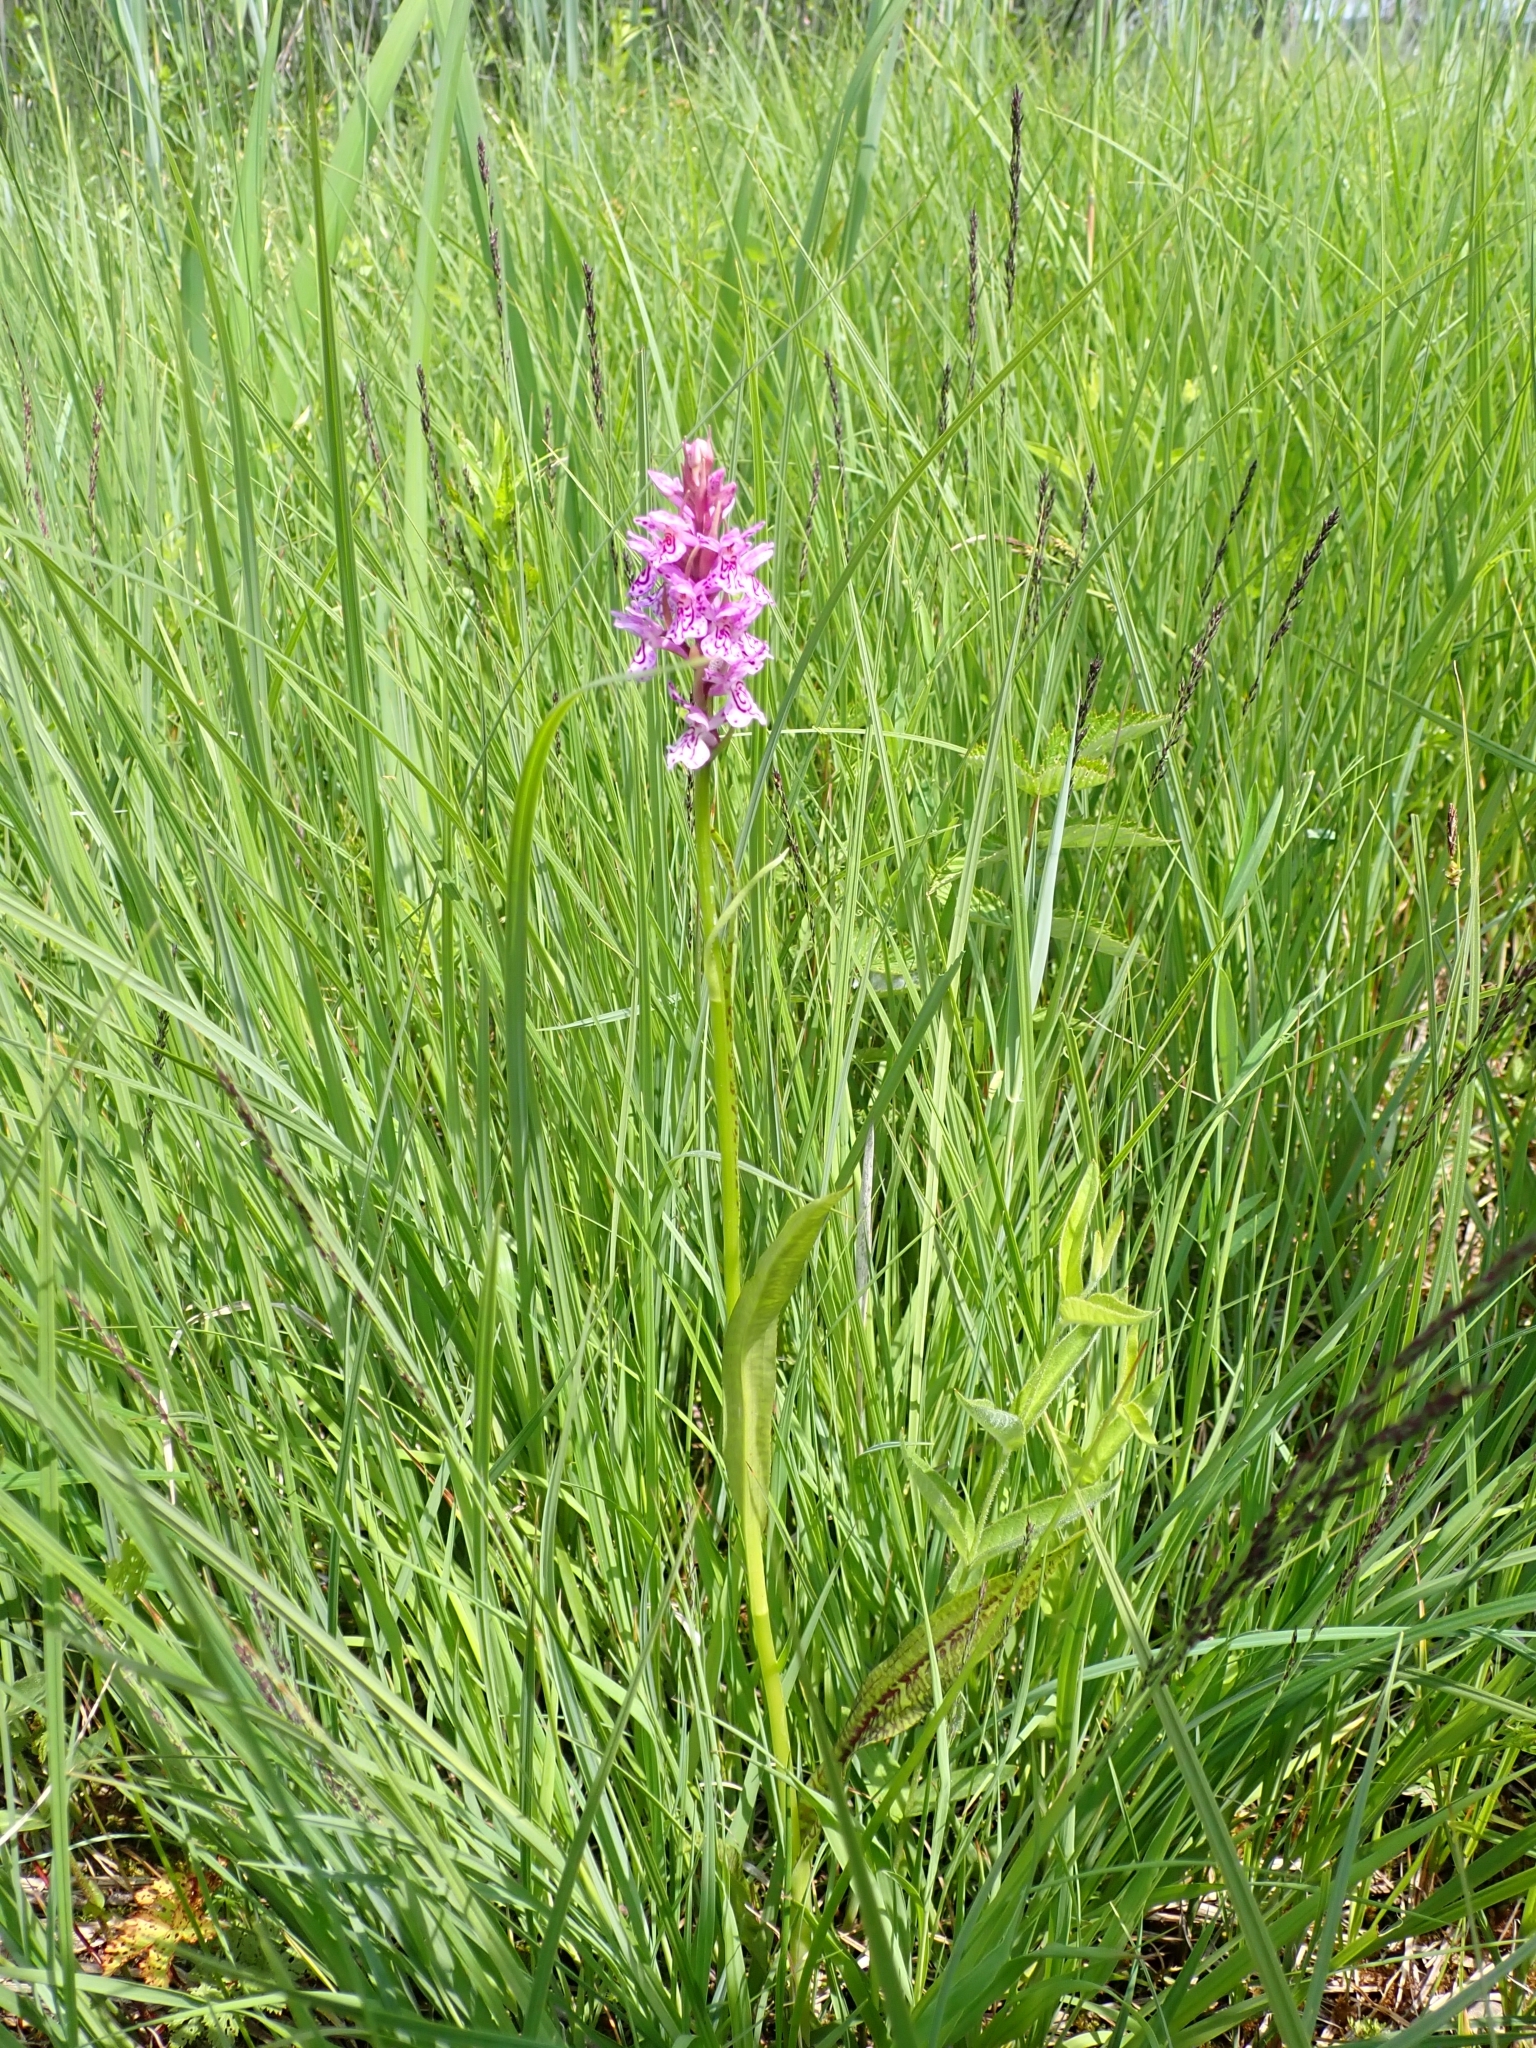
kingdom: Plantae
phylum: Tracheophyta
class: Liliopsida
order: Asparagales
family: Orchidaceae
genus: Dactylorhiza
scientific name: Dactylorhiza maculata
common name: Heath spotted-orchid
